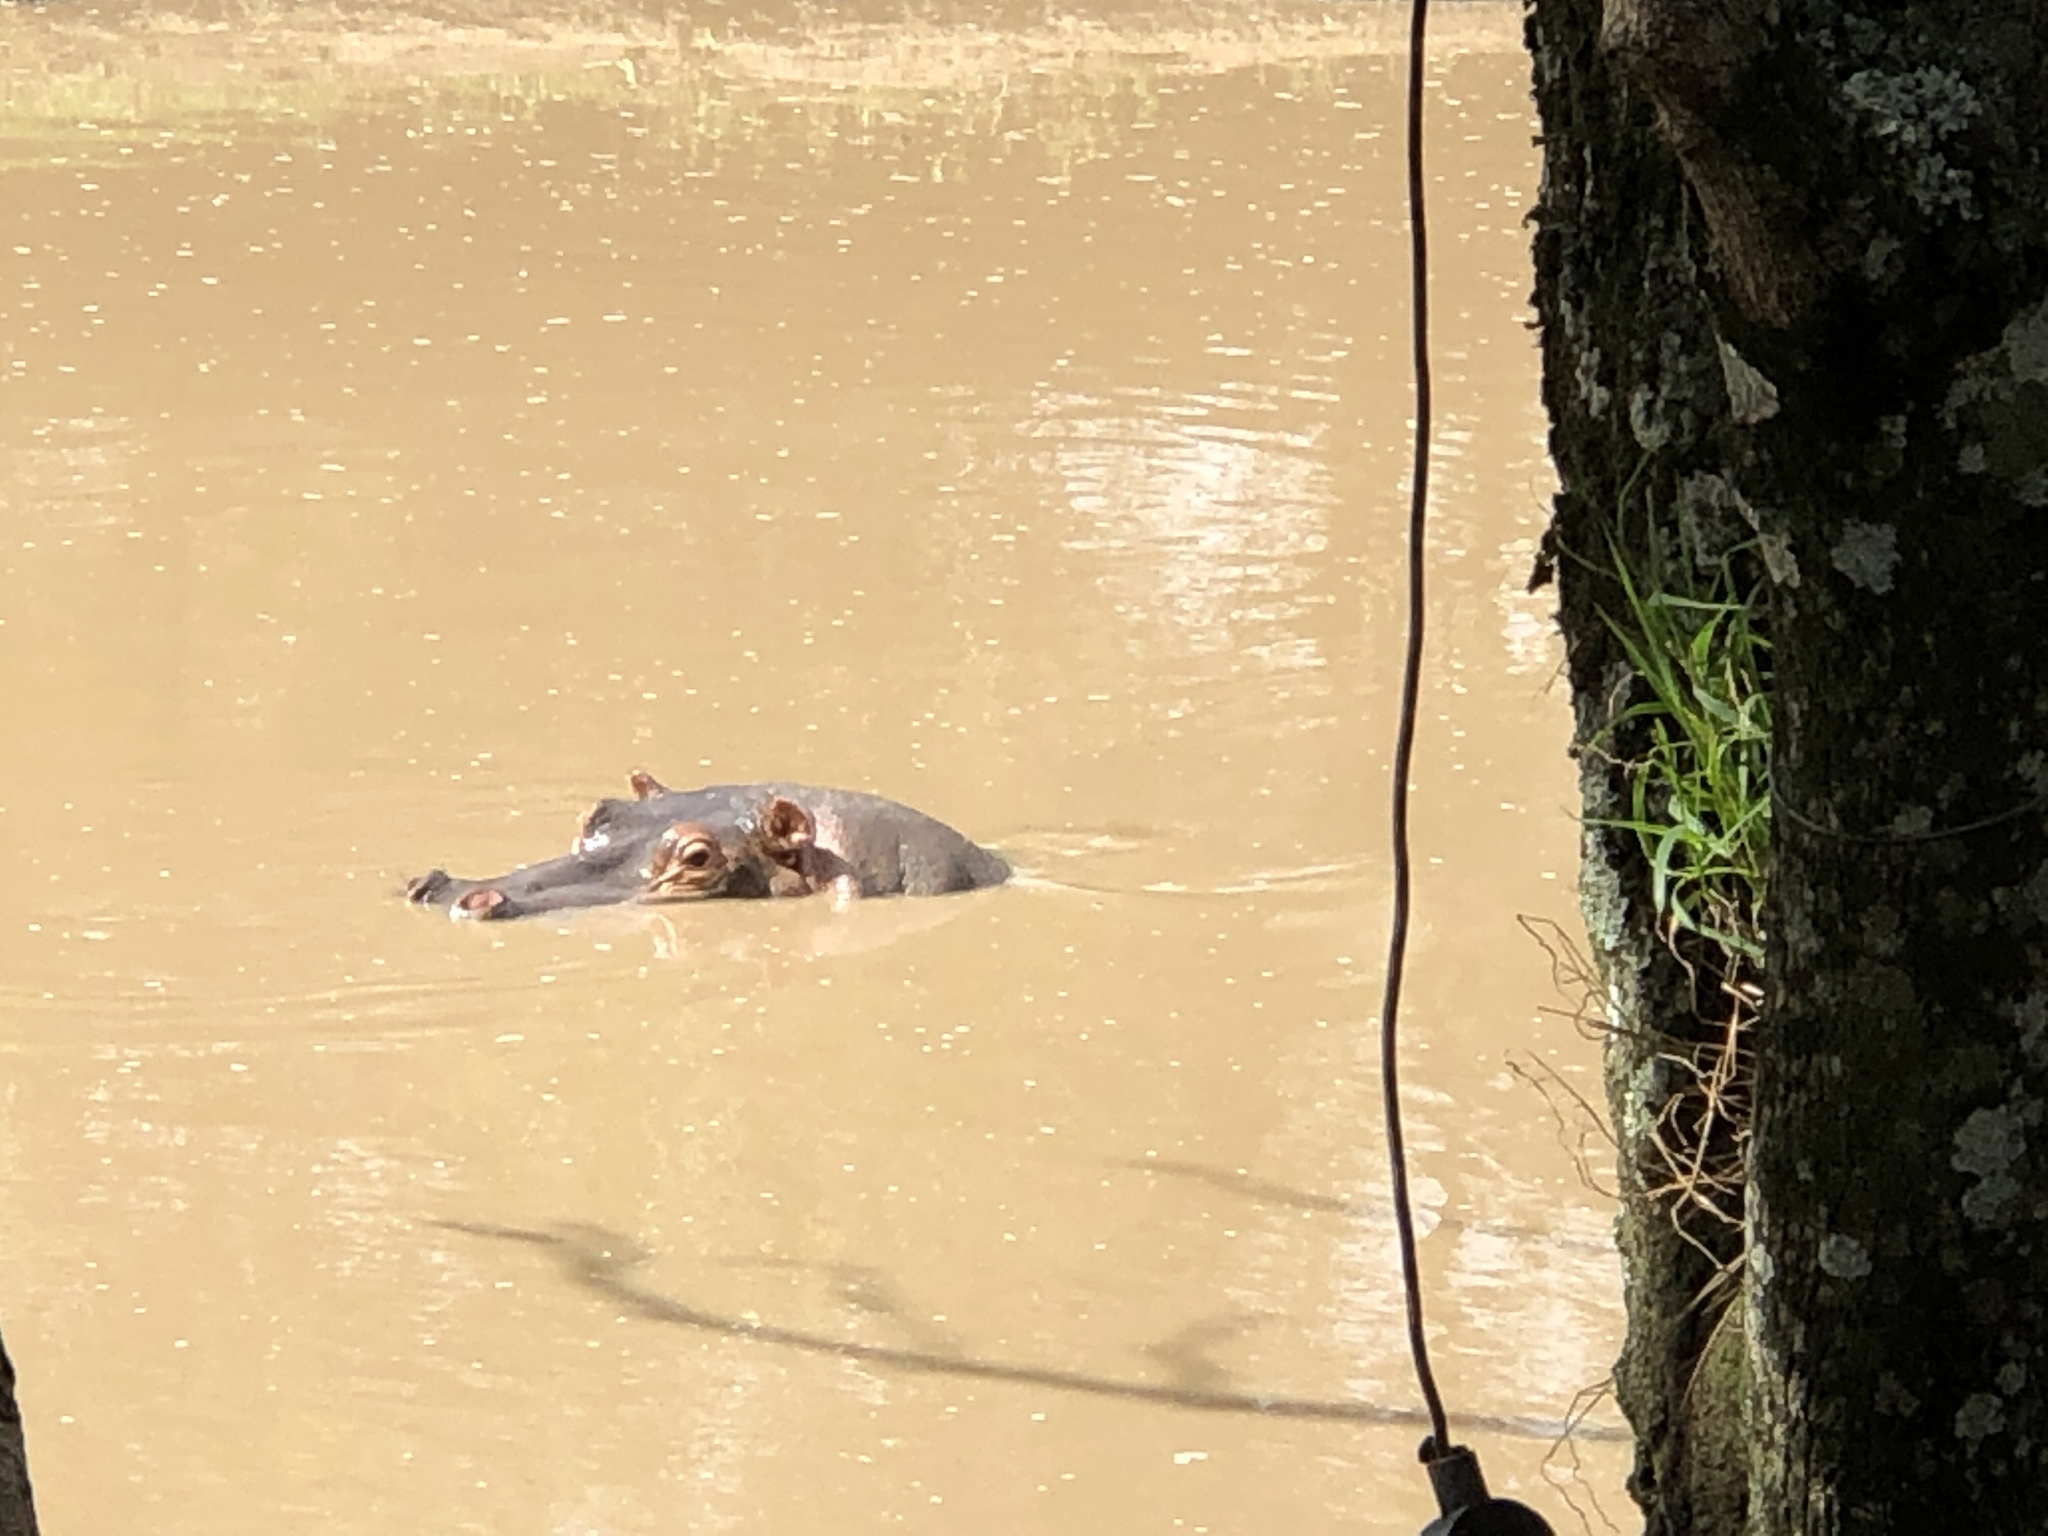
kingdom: Animalia
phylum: Chordata
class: Mammalia
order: Artiodactyla
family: Hippopotamidae
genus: Hippopotamus
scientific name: Hippopotamus amphibius
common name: Common hippopotamus
